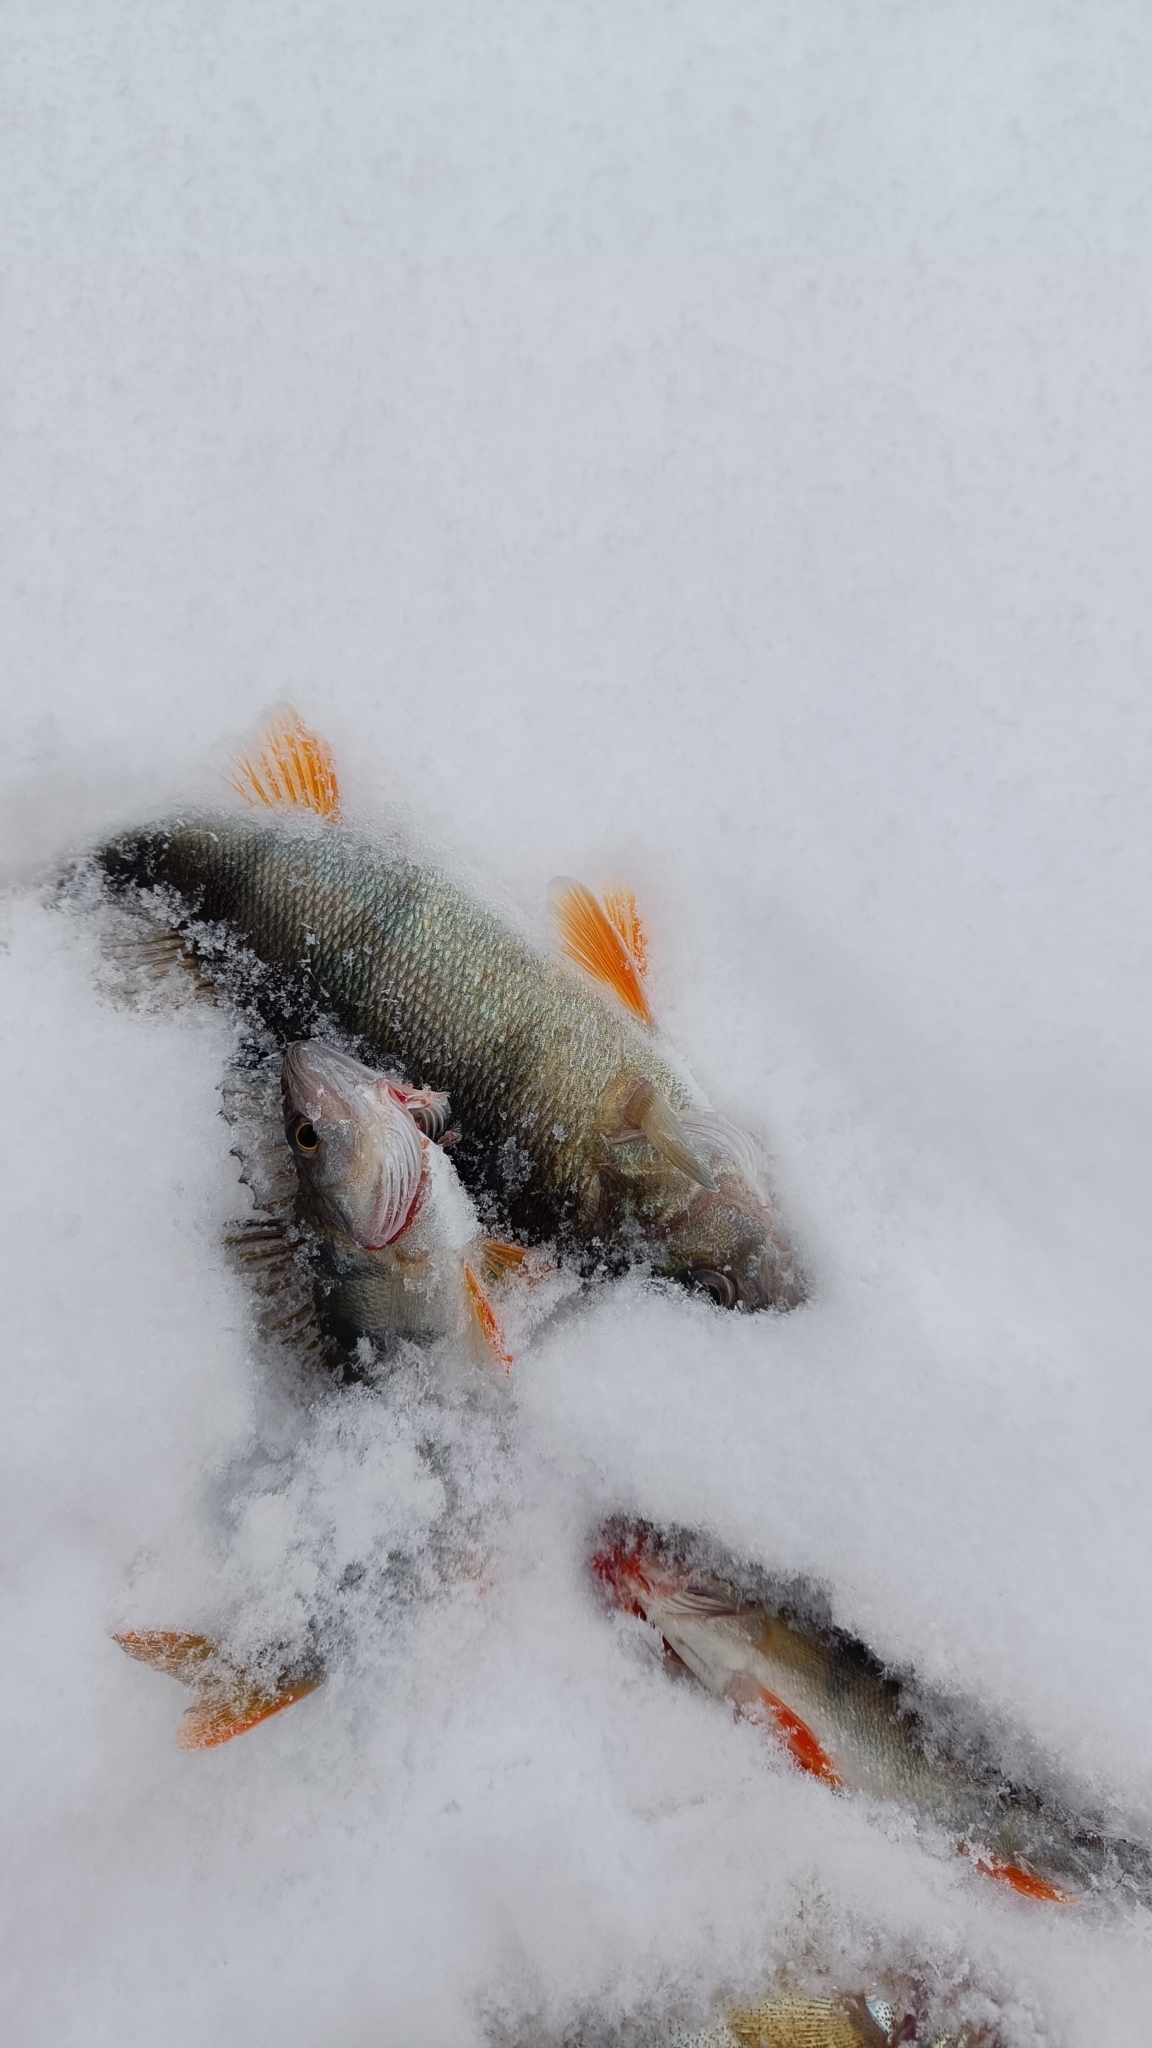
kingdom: Animalia
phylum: Chordata
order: Perciformes
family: Percidae
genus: Perca
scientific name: Perca fluviatilis
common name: Perch
